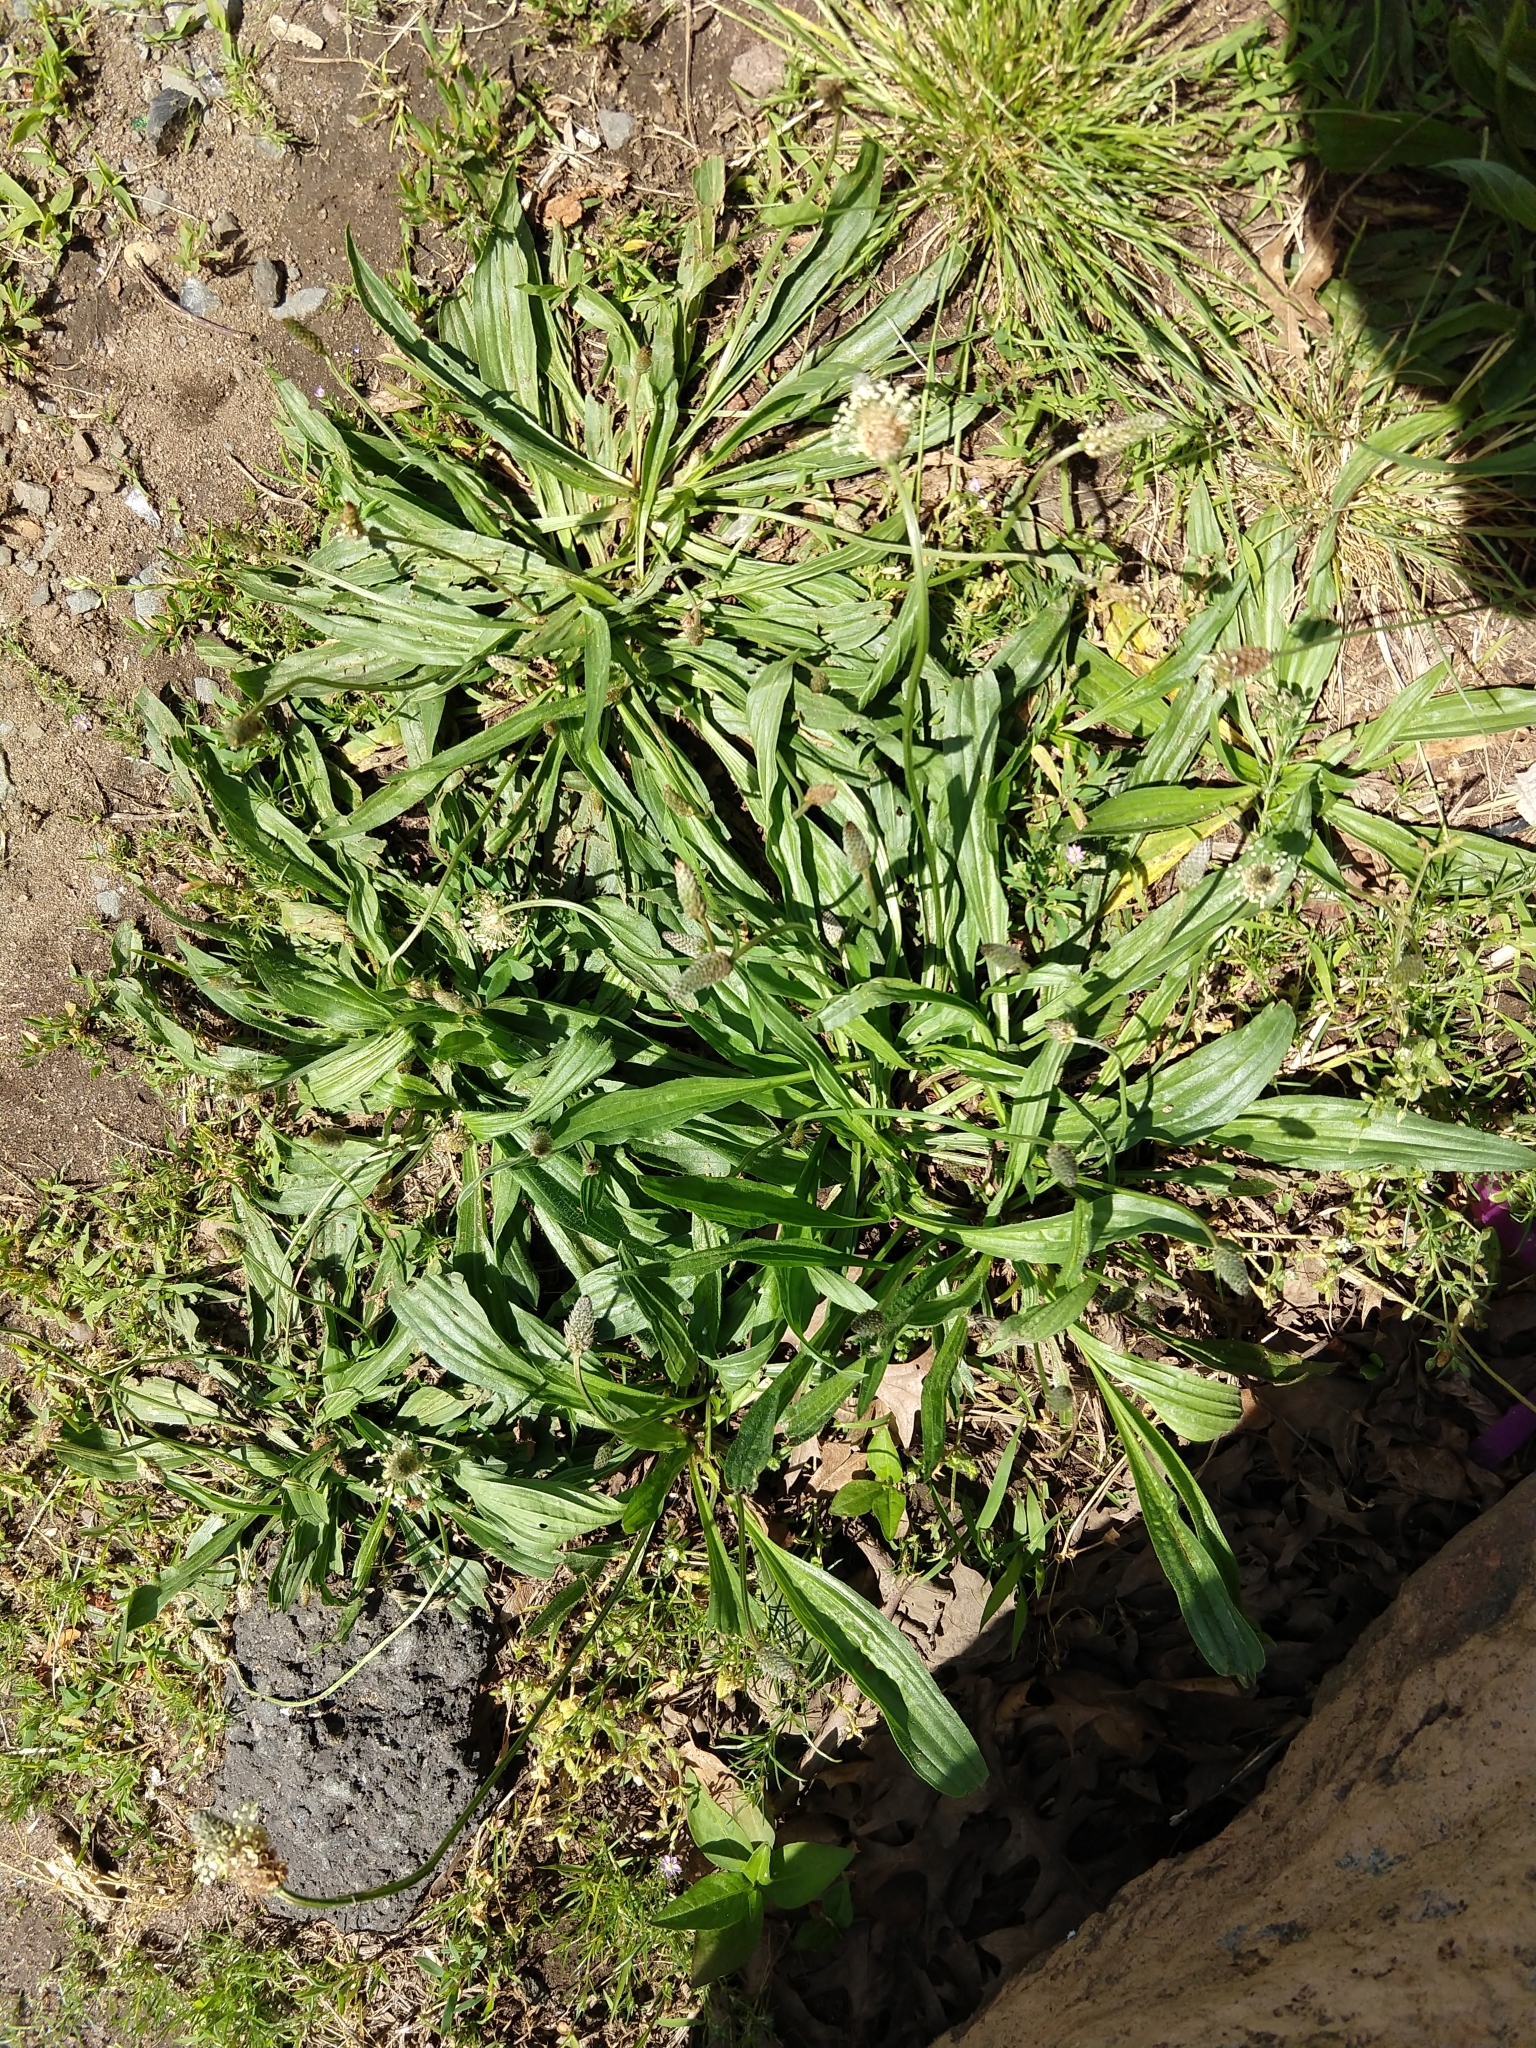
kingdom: Plantae
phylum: Tracheophyta
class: Magnoliopsida
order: Lamiales
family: Plantaginaceae
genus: Plantago
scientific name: Plantago lanceolata
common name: Ribwort plantain
